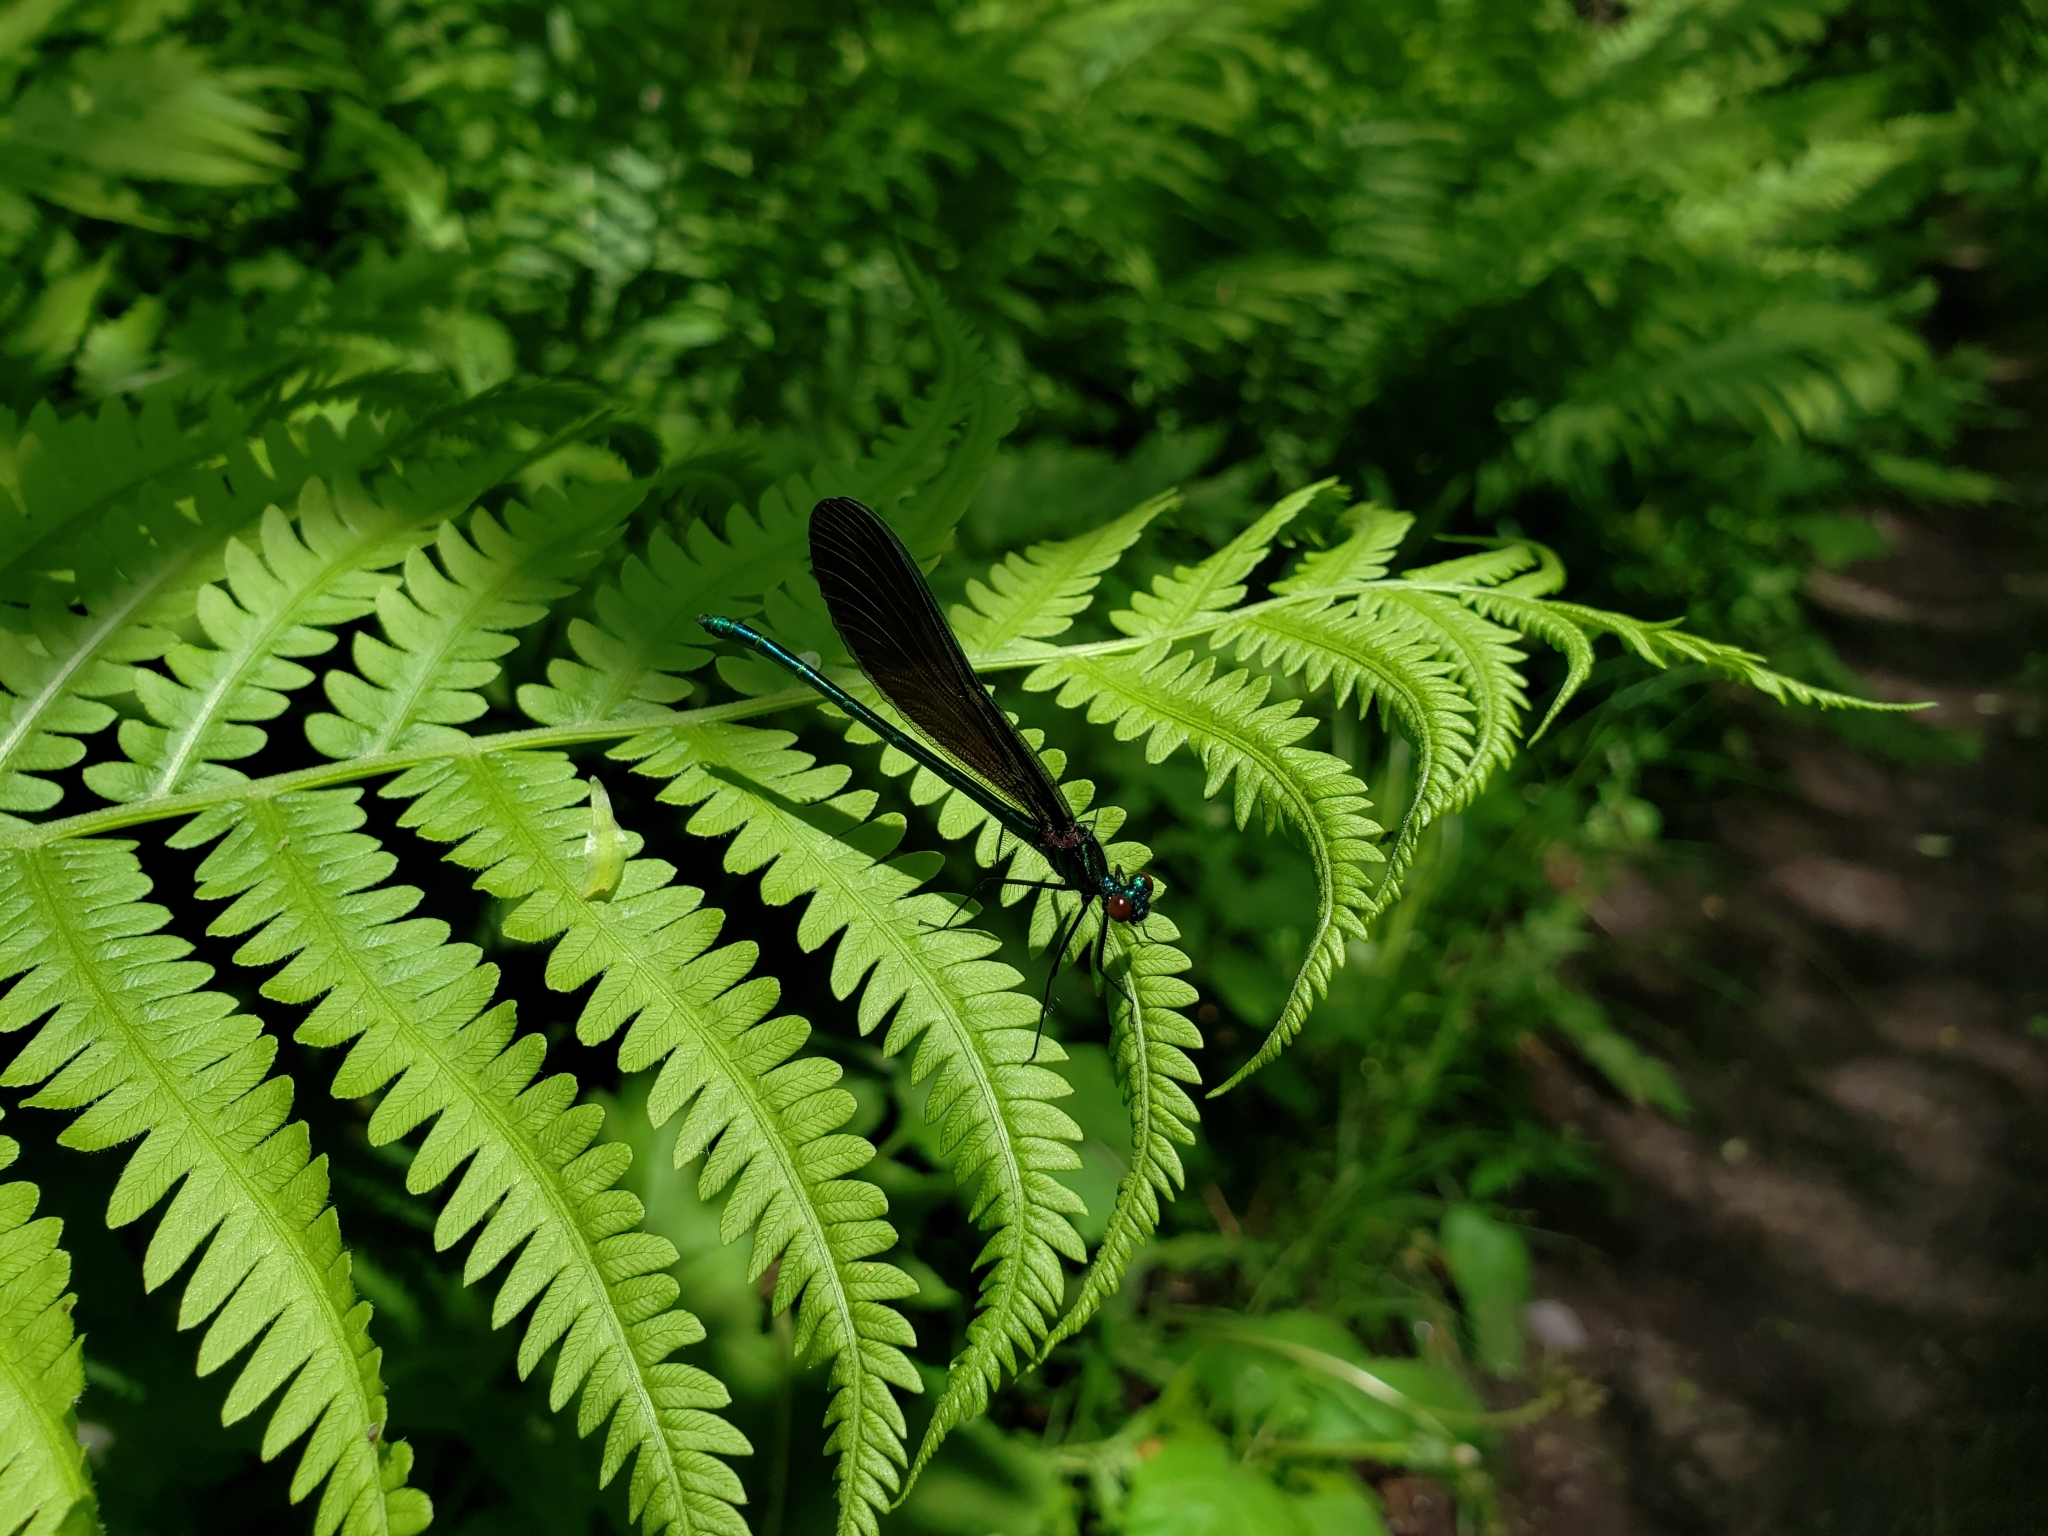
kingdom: Animalia
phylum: Arthropoda
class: Insecta
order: Odonata
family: Calopterygidae
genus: Calopteryx
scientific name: Calopteryx maculata
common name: Ebony jewelwing
